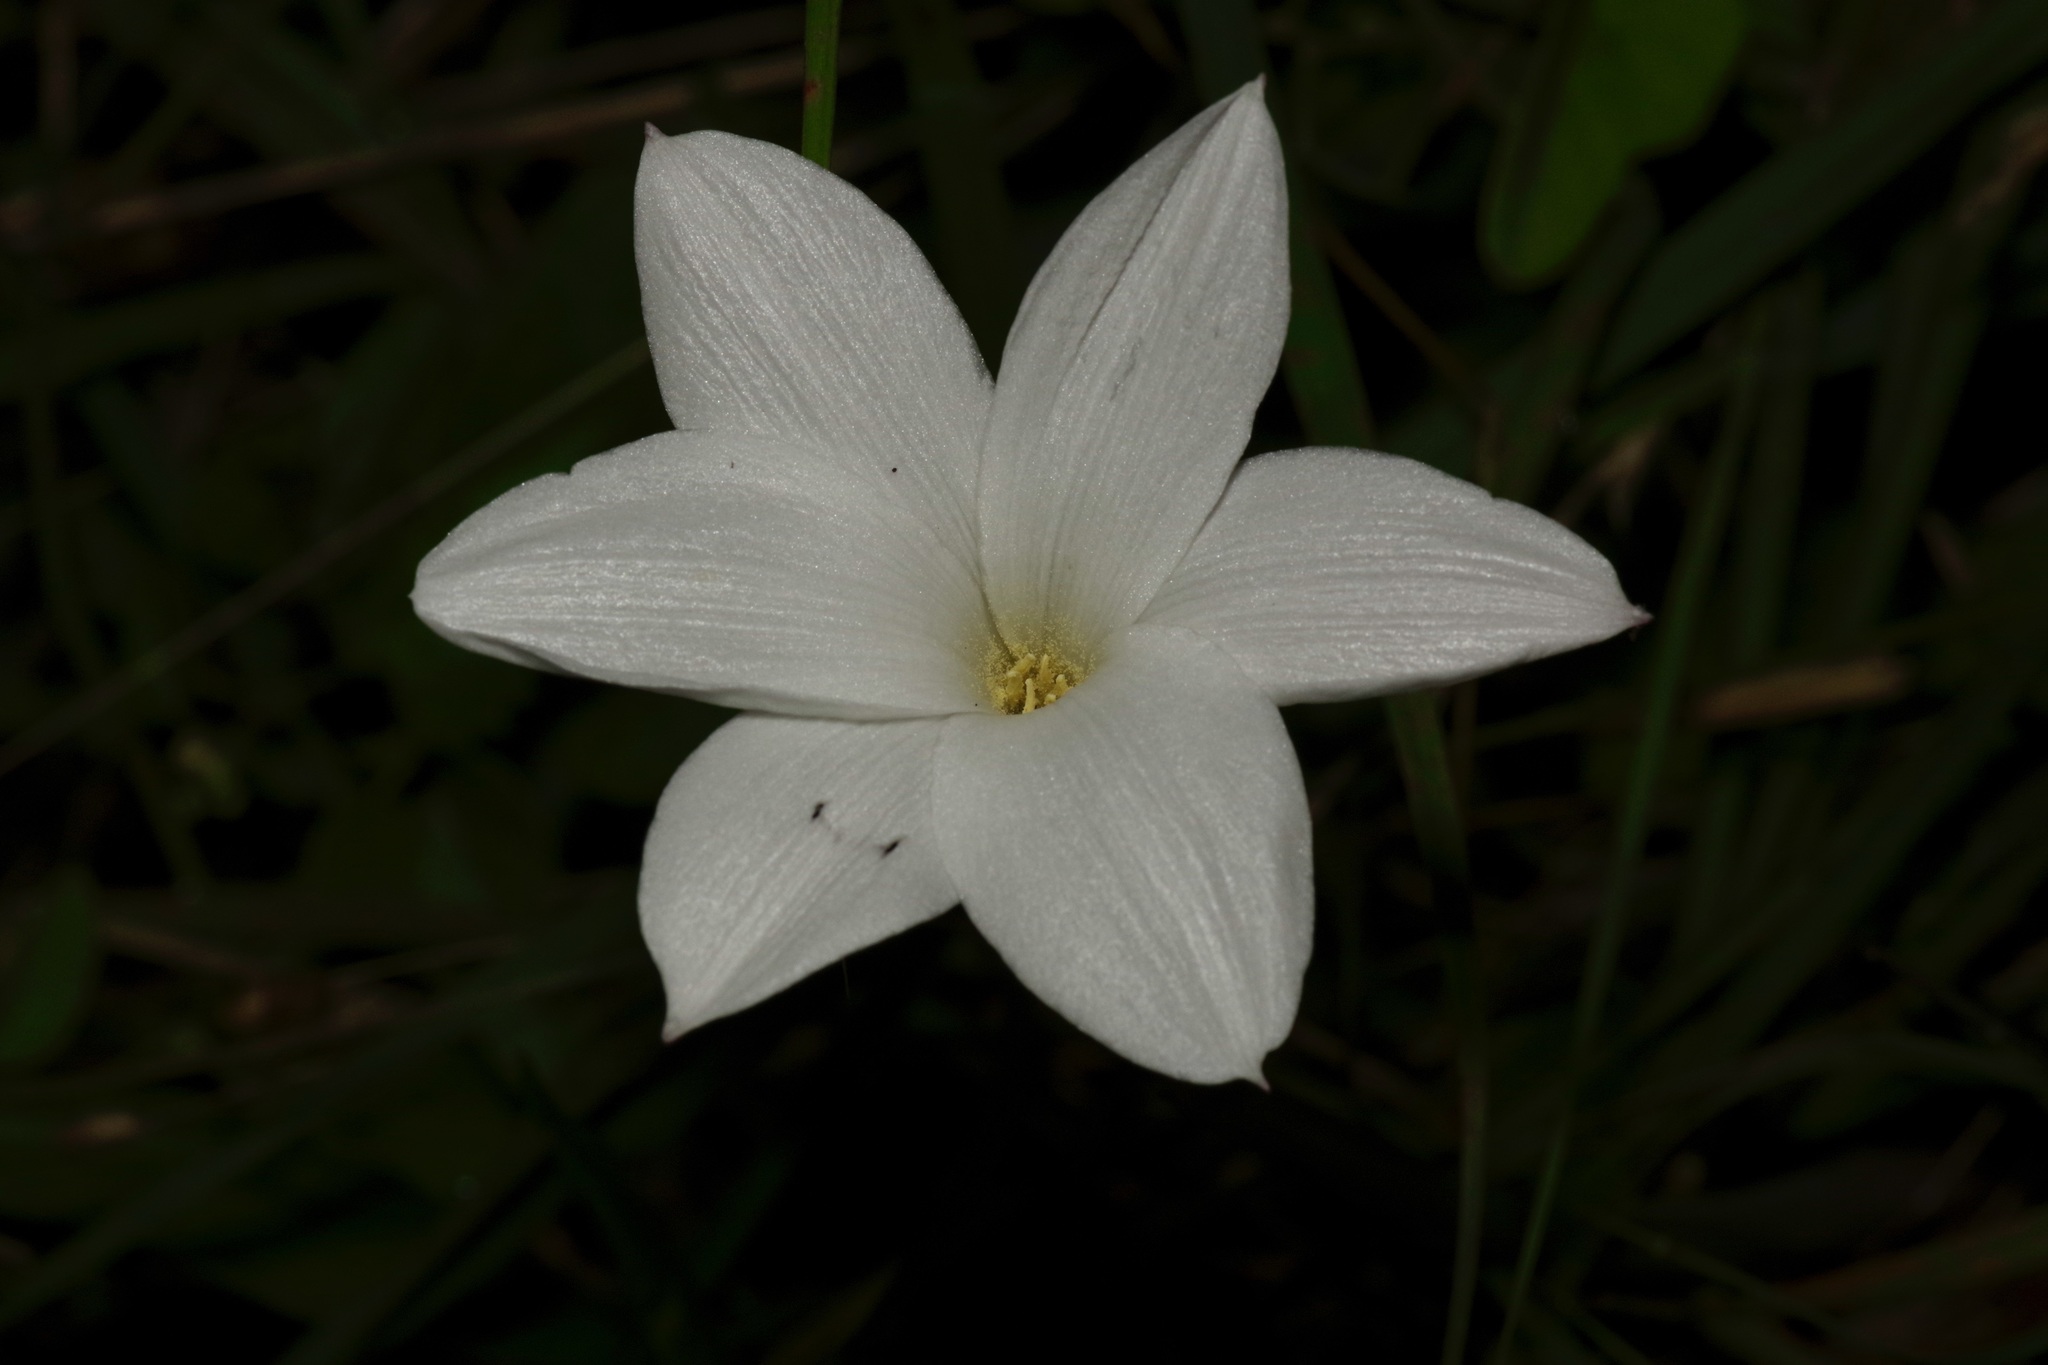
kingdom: Plantae
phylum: Tracheophyta
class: Liliopsida
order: Asparagales
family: Amaryllidaceae
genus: Zephyranthes
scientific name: Zephyranthes drummondii
